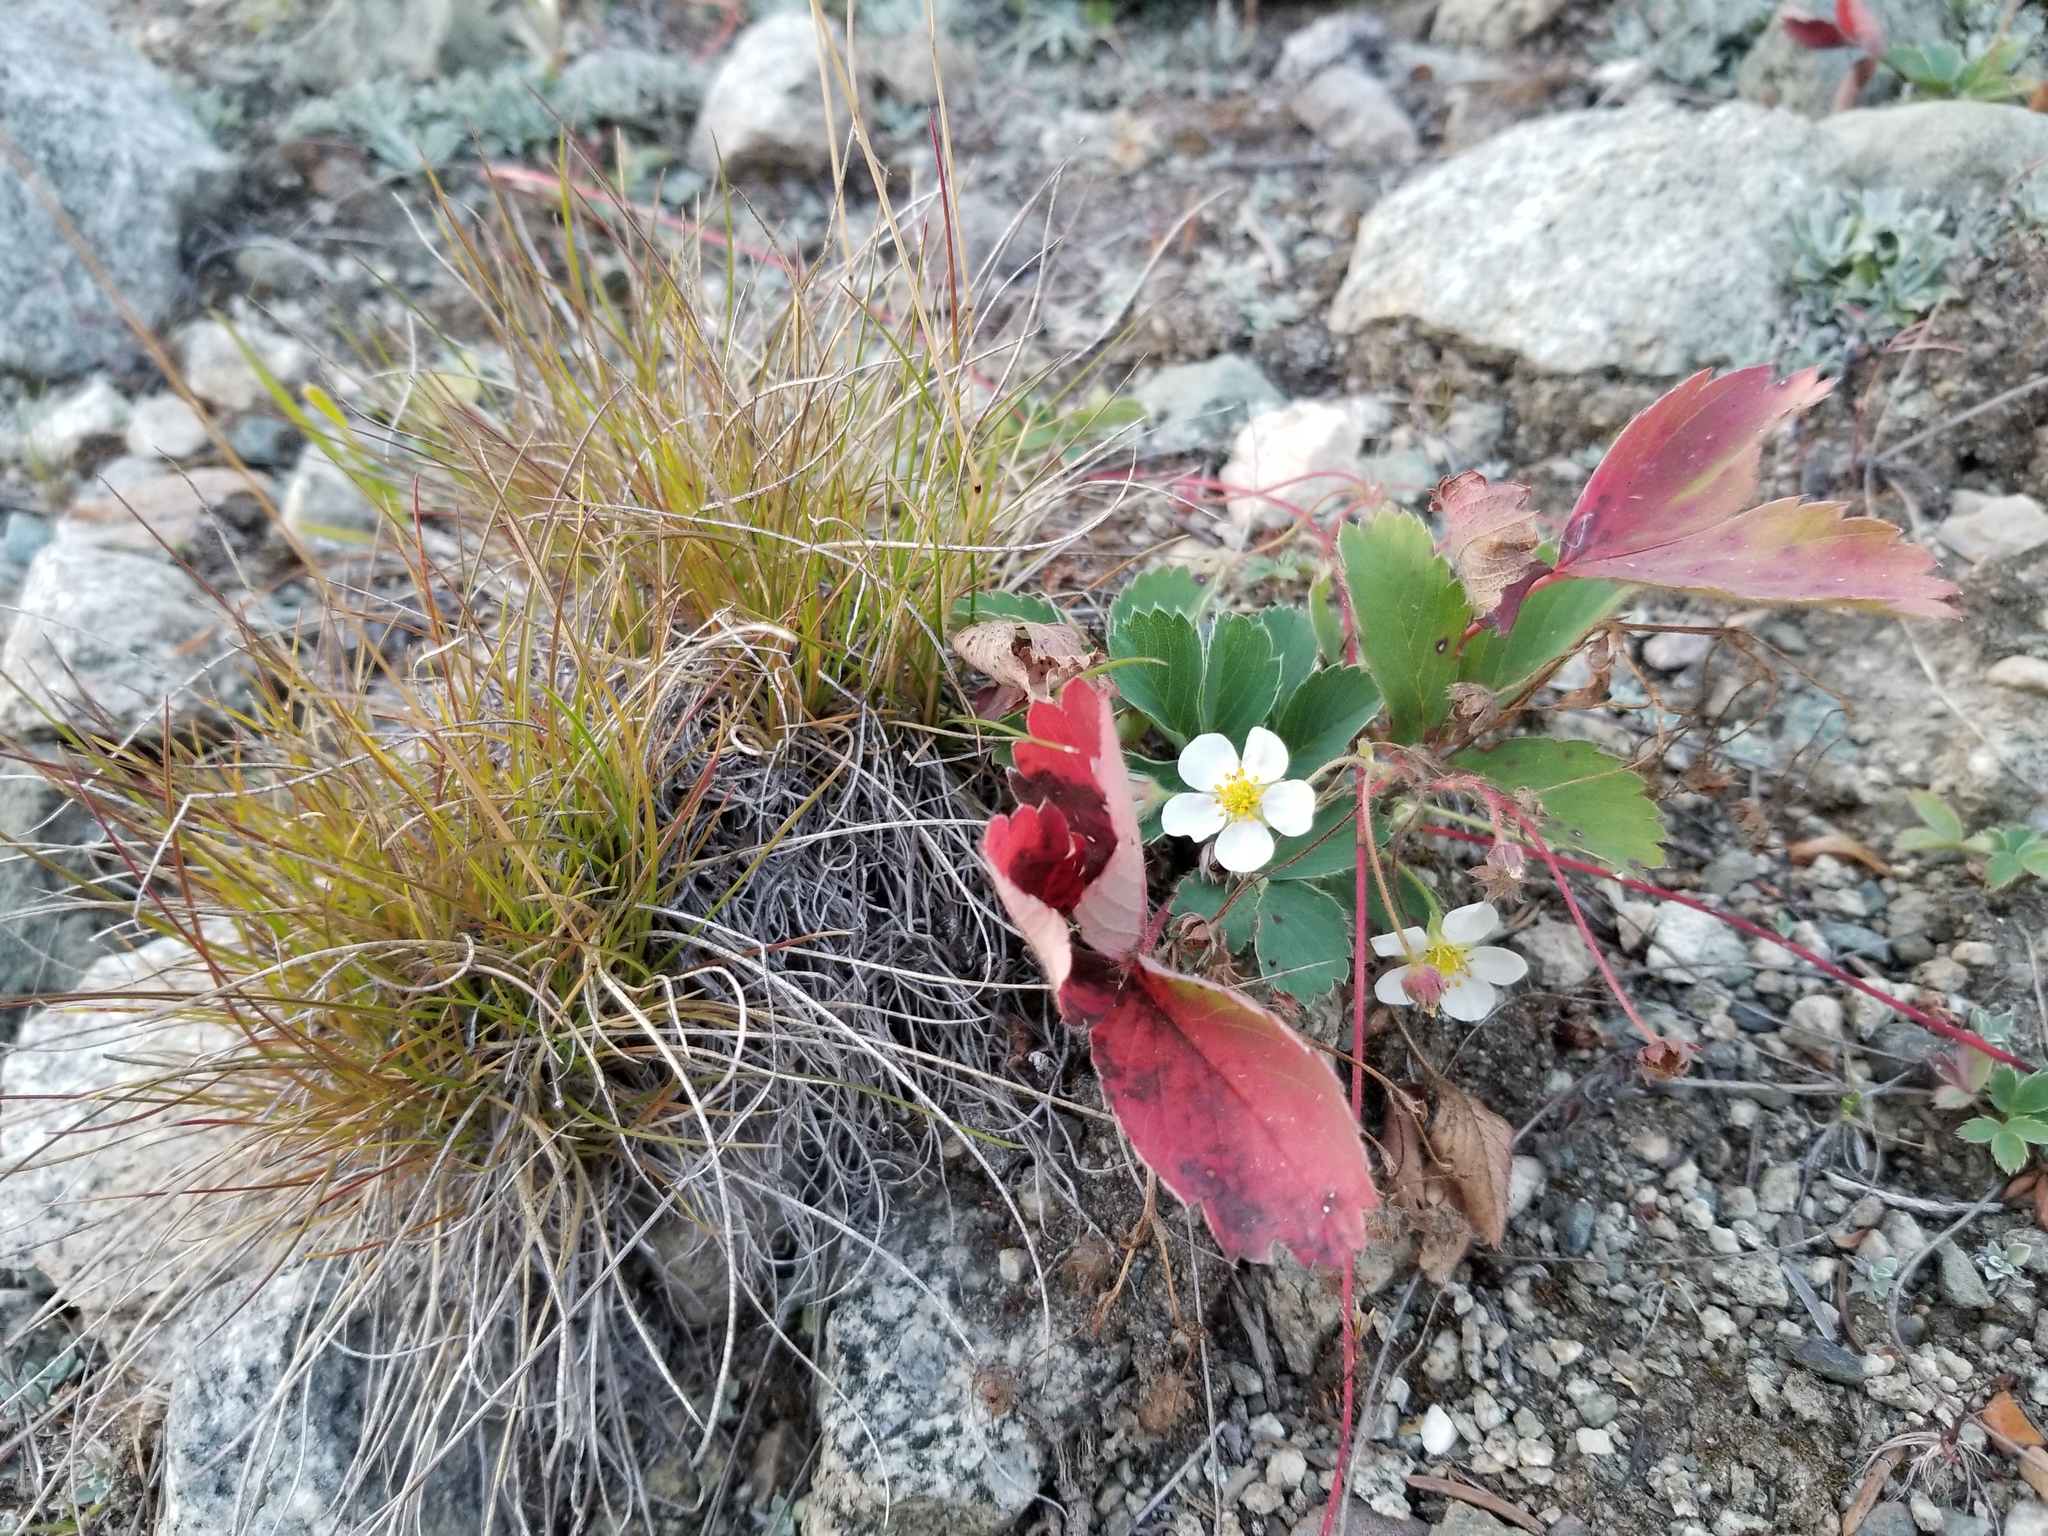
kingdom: Plantae
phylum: Tracheophyta
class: Magnoliopsida
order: Rosales
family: Rosaceae
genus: Fragaria
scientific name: Fragaria virginiana
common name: Thickleaved wild strawberry
